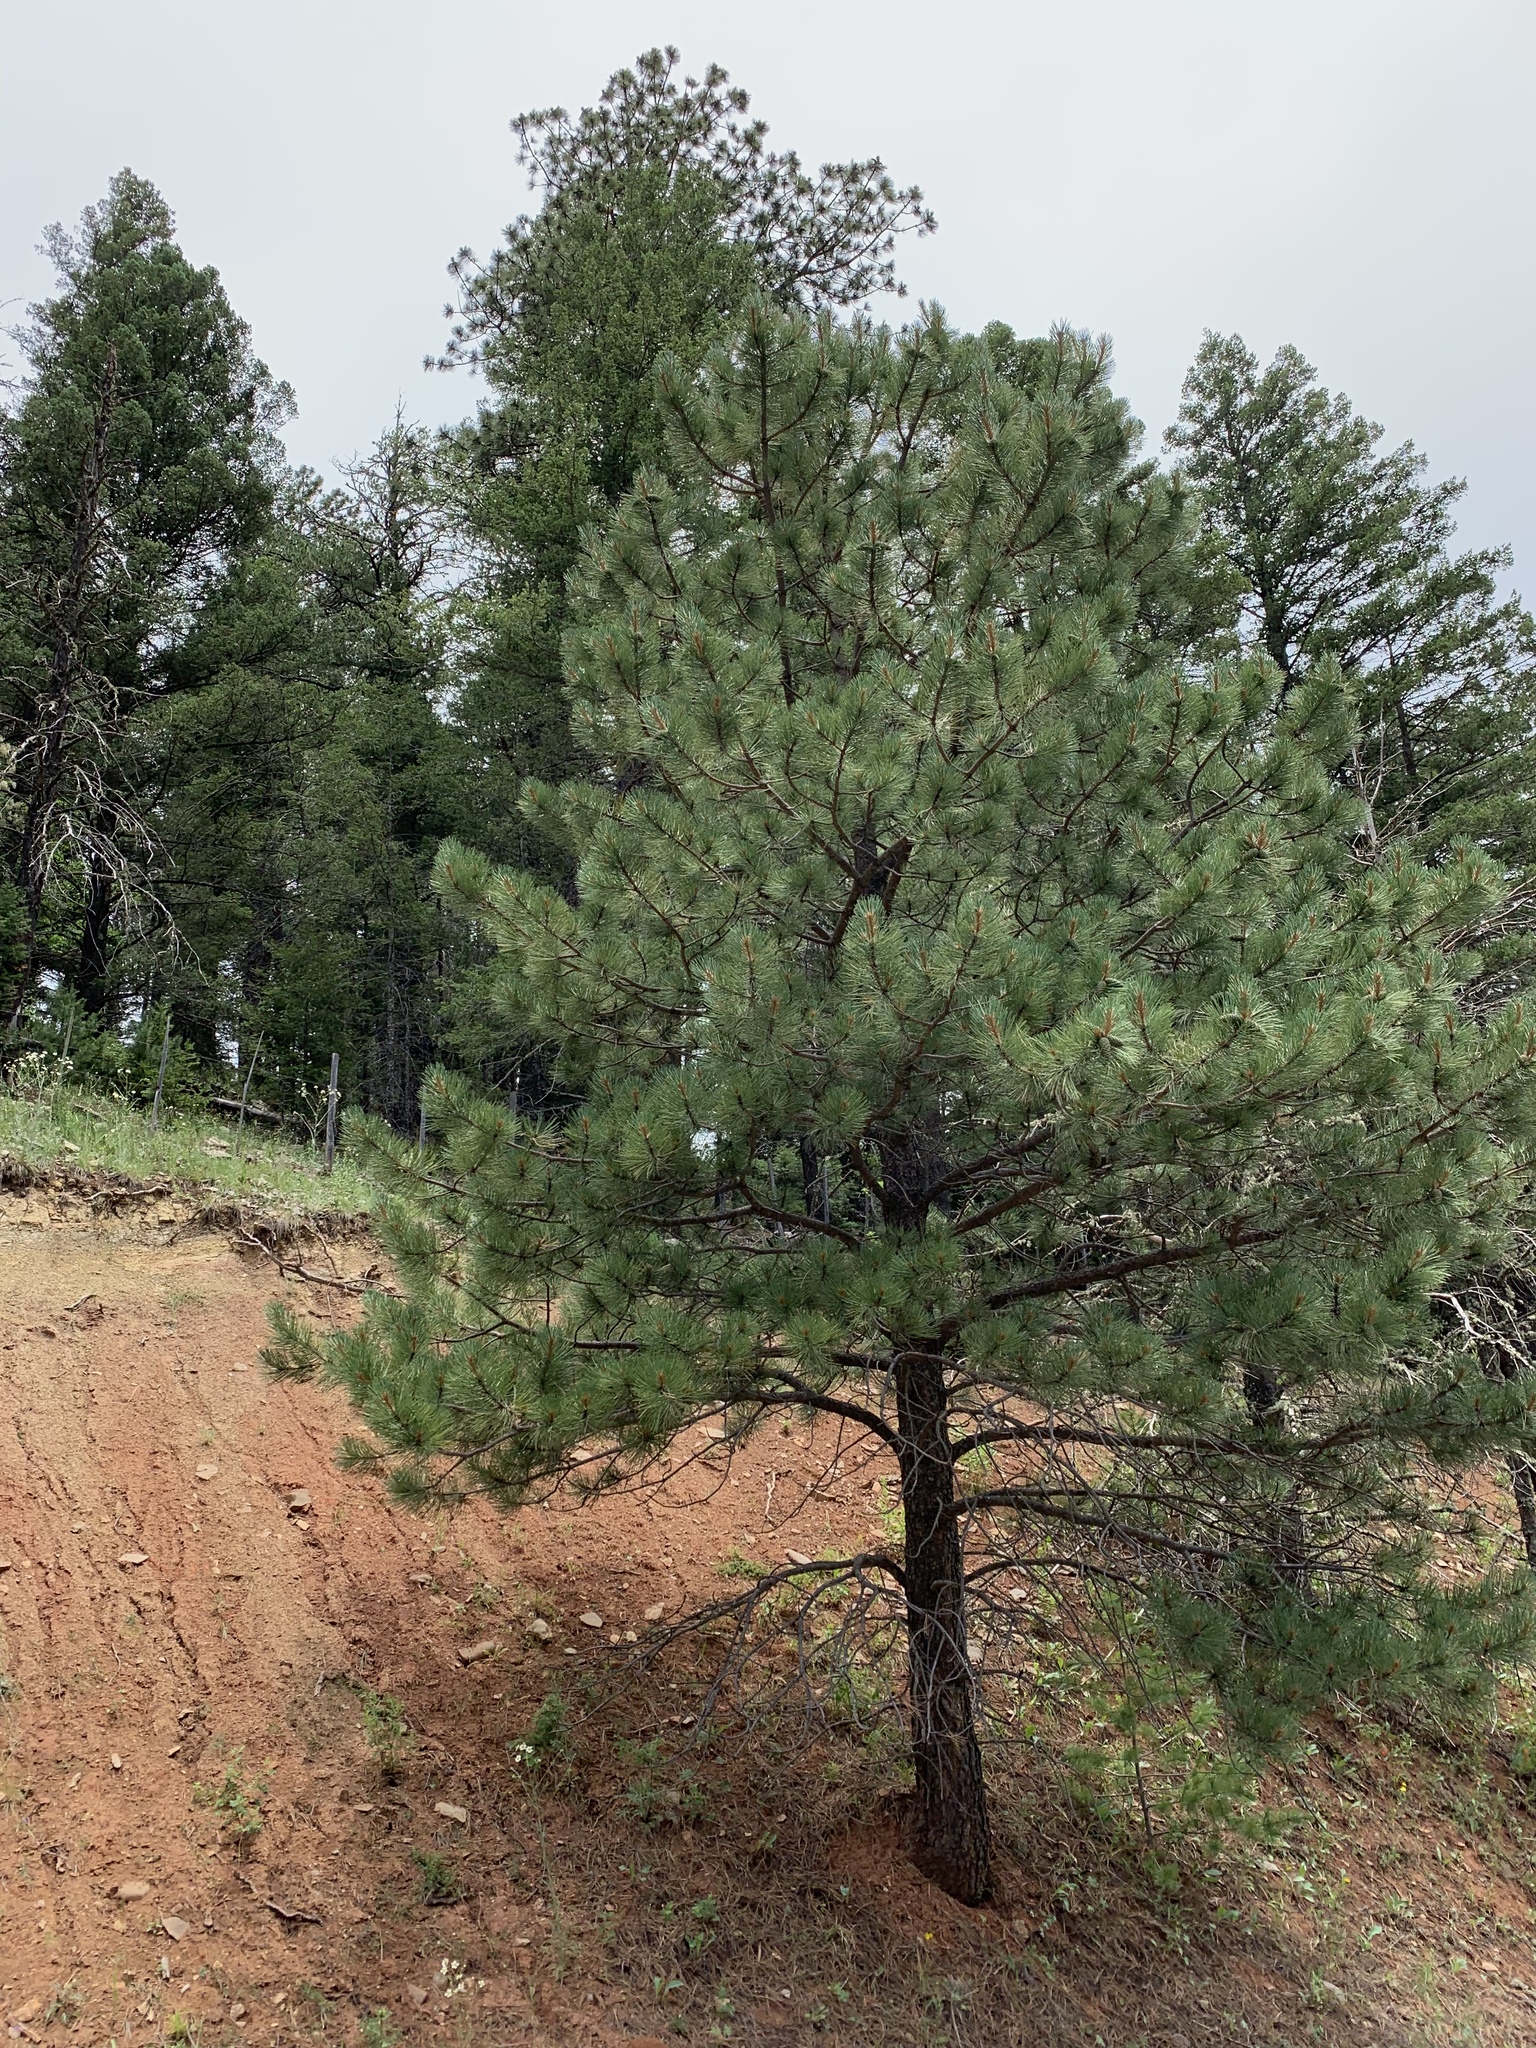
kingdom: Plantae
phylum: Tracheophyta
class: Pinopsida
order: Pinales
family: Pinaceae
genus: Pinus
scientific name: Pinus ponderosa
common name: Western yellow-pine
